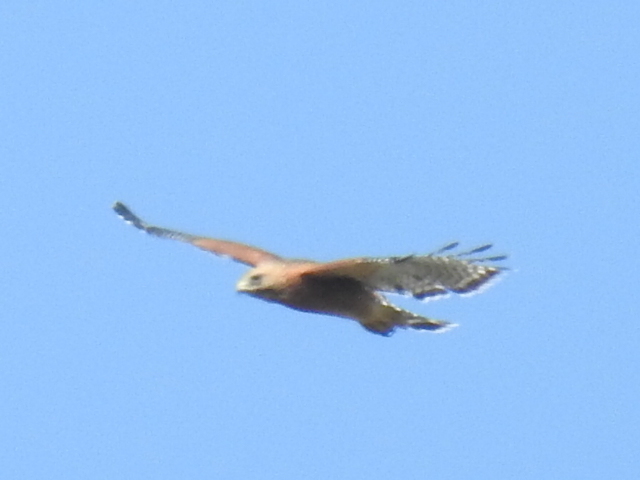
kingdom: Animalia
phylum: Chordata
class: Aves
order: Accipitriformes
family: Accipitridae
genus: Buteo
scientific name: Buteo lineatus
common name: Red-shouldered hawk
